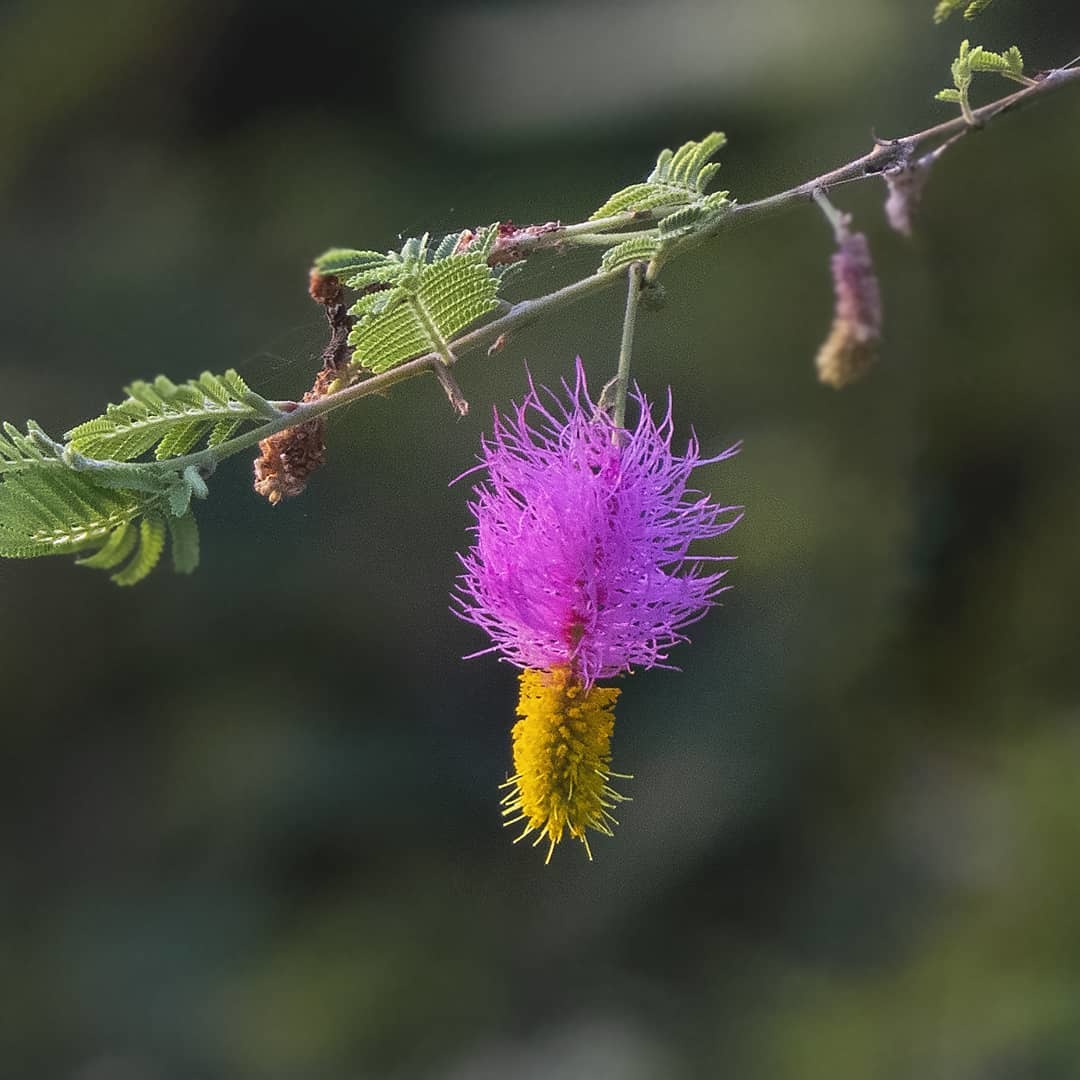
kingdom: Plantae
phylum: Tracheophyta
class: Magnoliopsida
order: Fabales
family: Fabaceae
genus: Dichrostachys
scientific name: Dichrostachys cinerea
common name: Sicklebush
